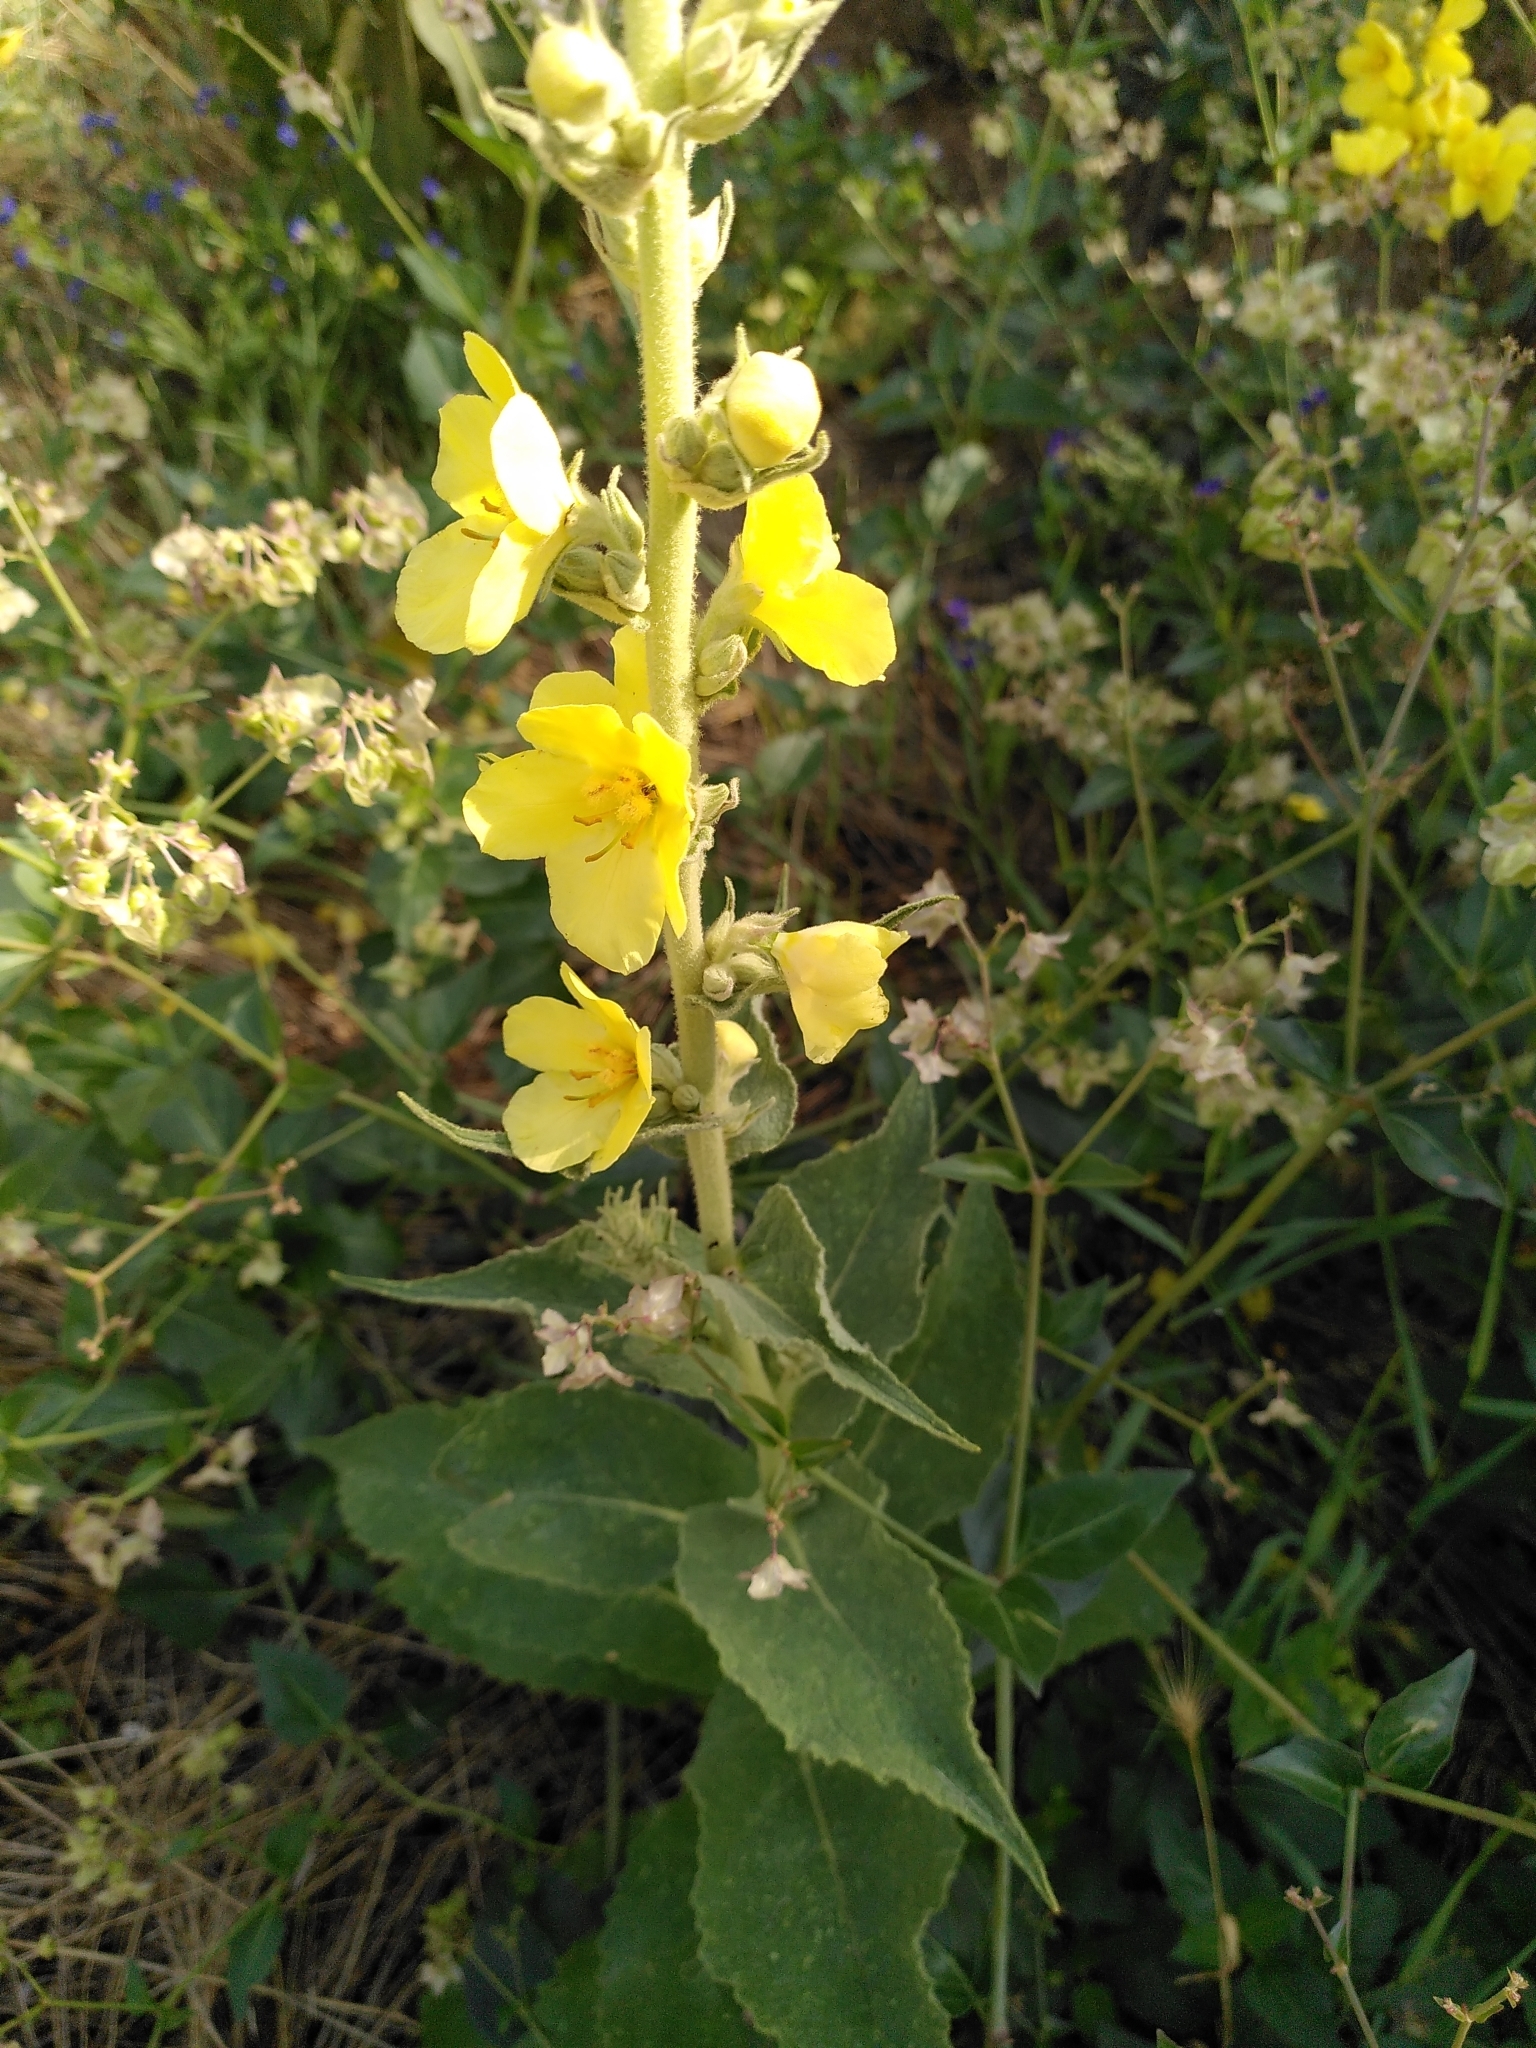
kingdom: Plantae
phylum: Tracheophyta
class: Magnoliopsida
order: Lamiales
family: Scrophulariaceae
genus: Verbascum
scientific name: Verbascum phlomoides
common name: Orange mullein
